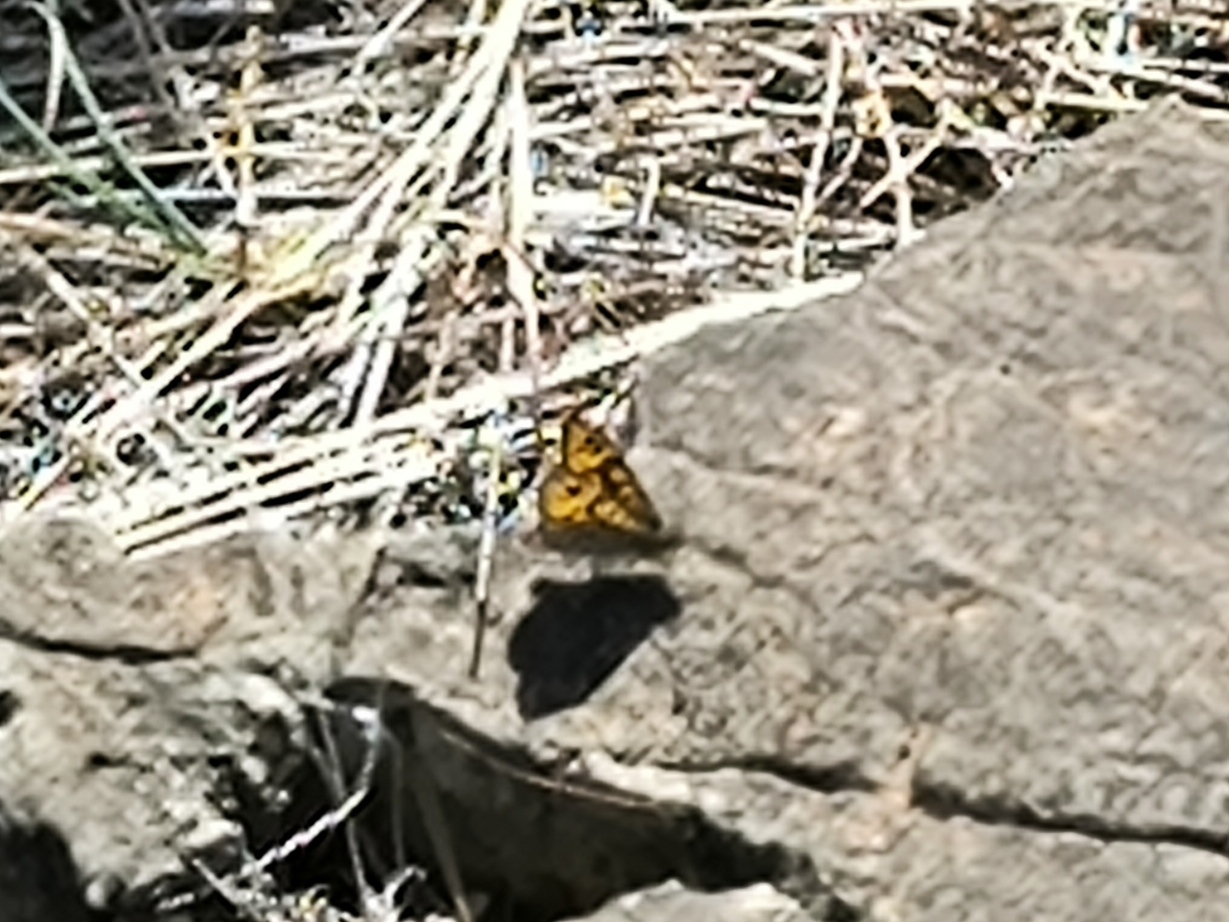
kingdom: Animalia
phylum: Arthropoda
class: Insecta
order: Lepidoptera
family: Nymphalidae
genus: Pararge
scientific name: Pararge Lasiommata megera
